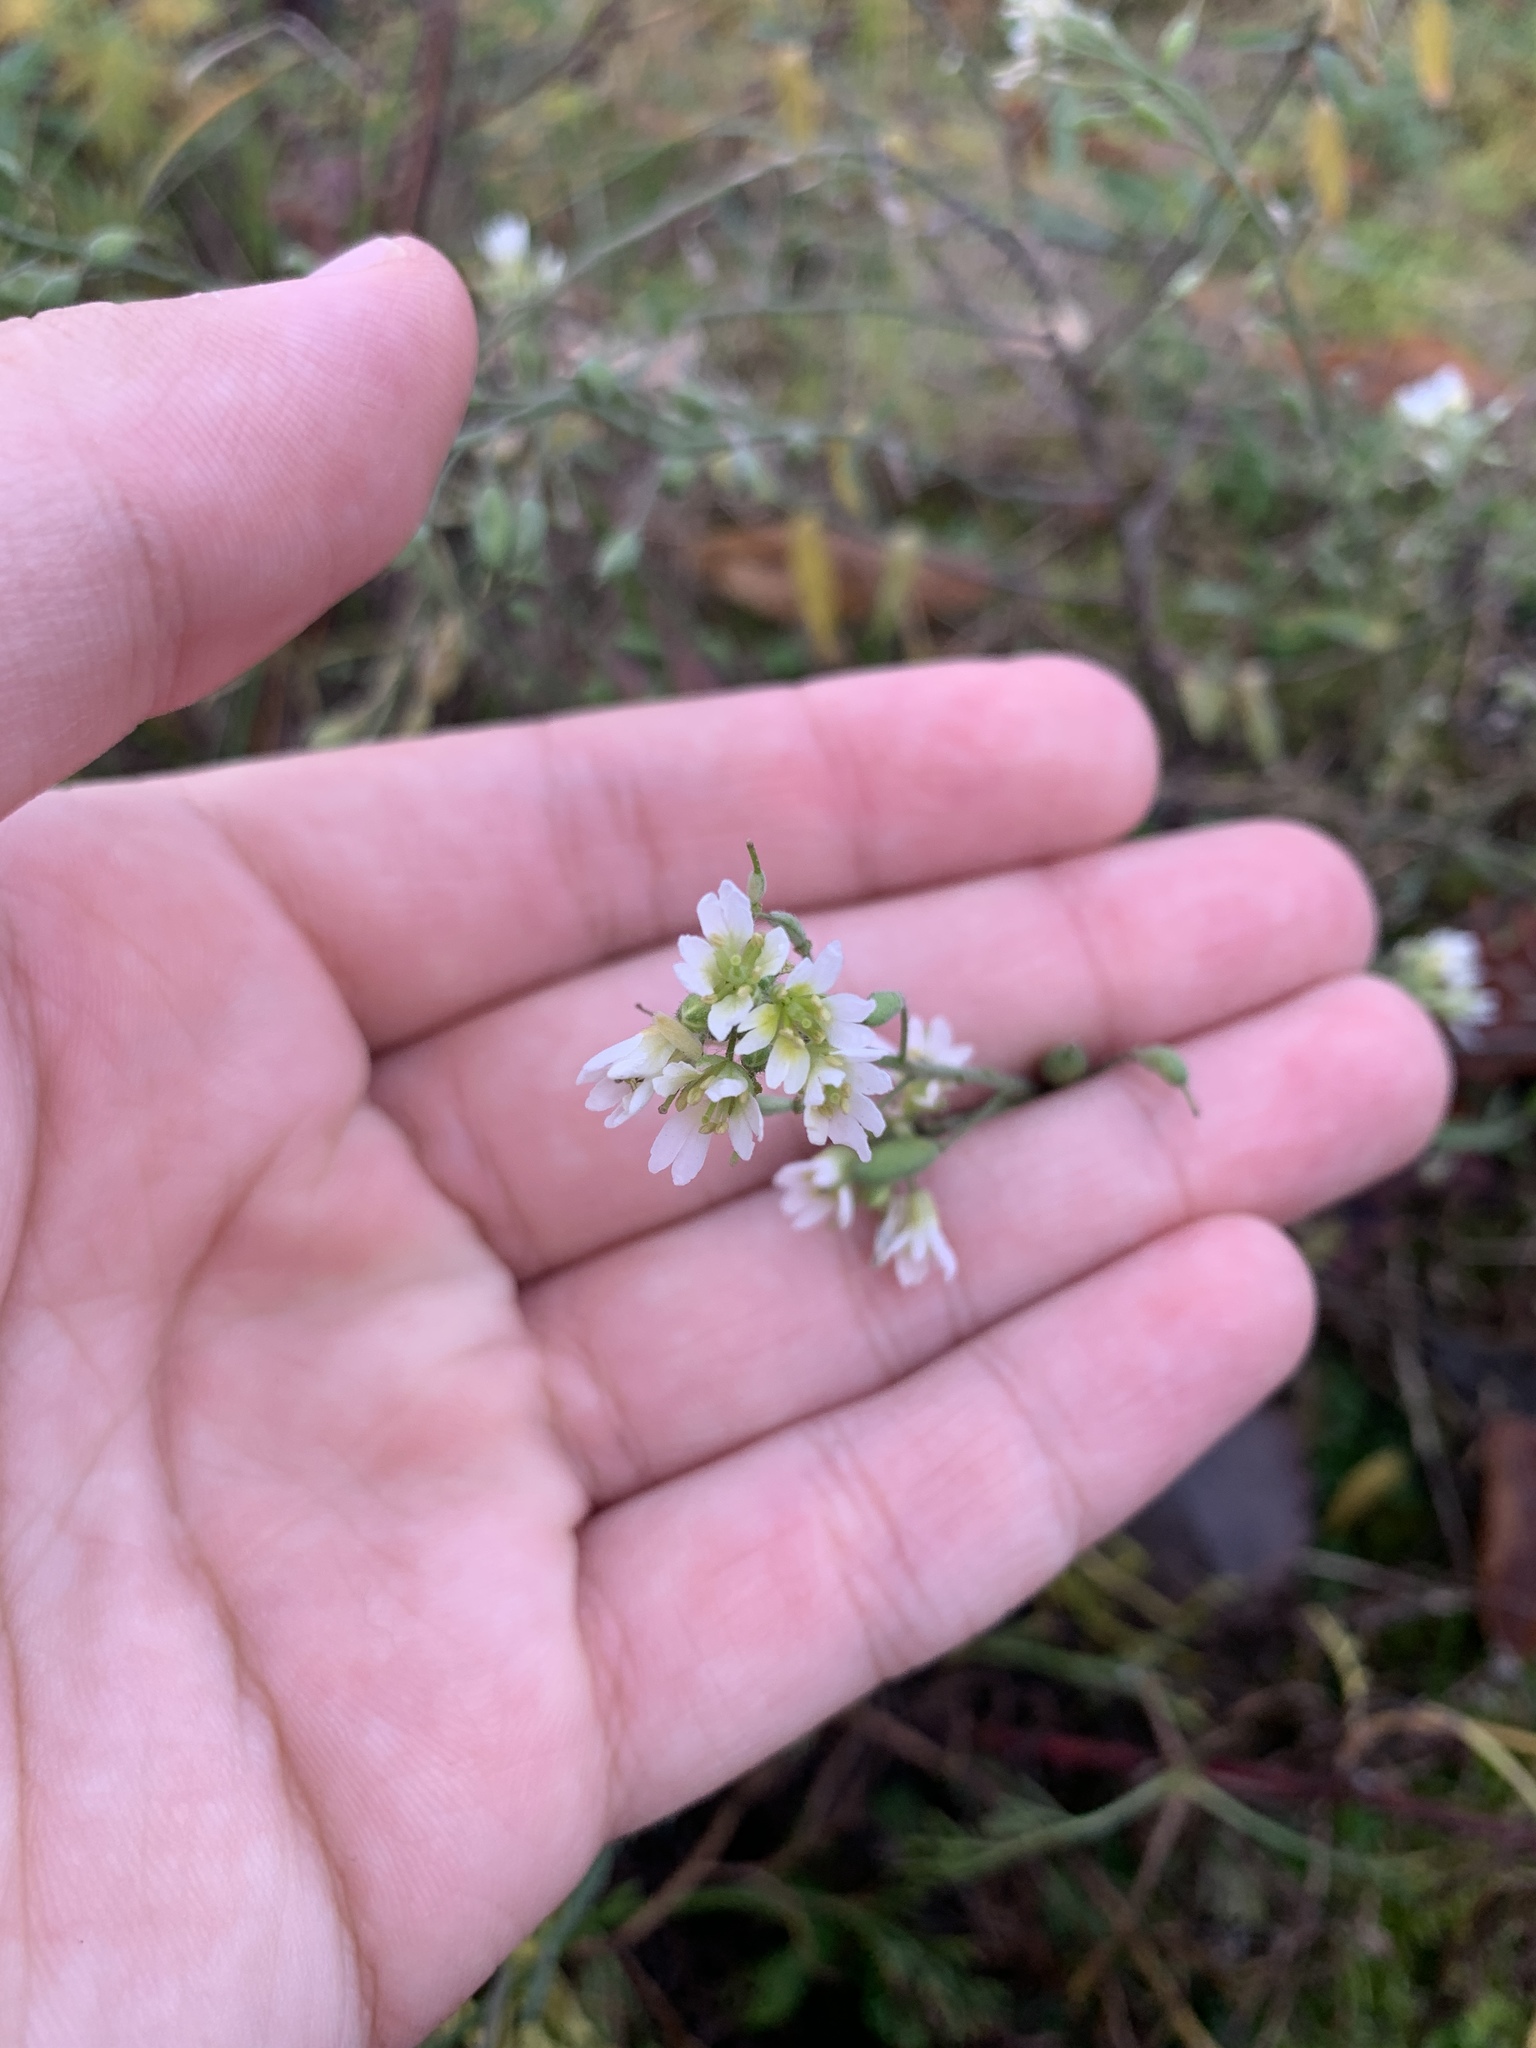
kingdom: Plantae
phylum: Tracheophyta
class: Magnoliopsida
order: Brassicales
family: Brassicaceae
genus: Berteroa
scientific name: Berteroa incana
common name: Hoary alison
